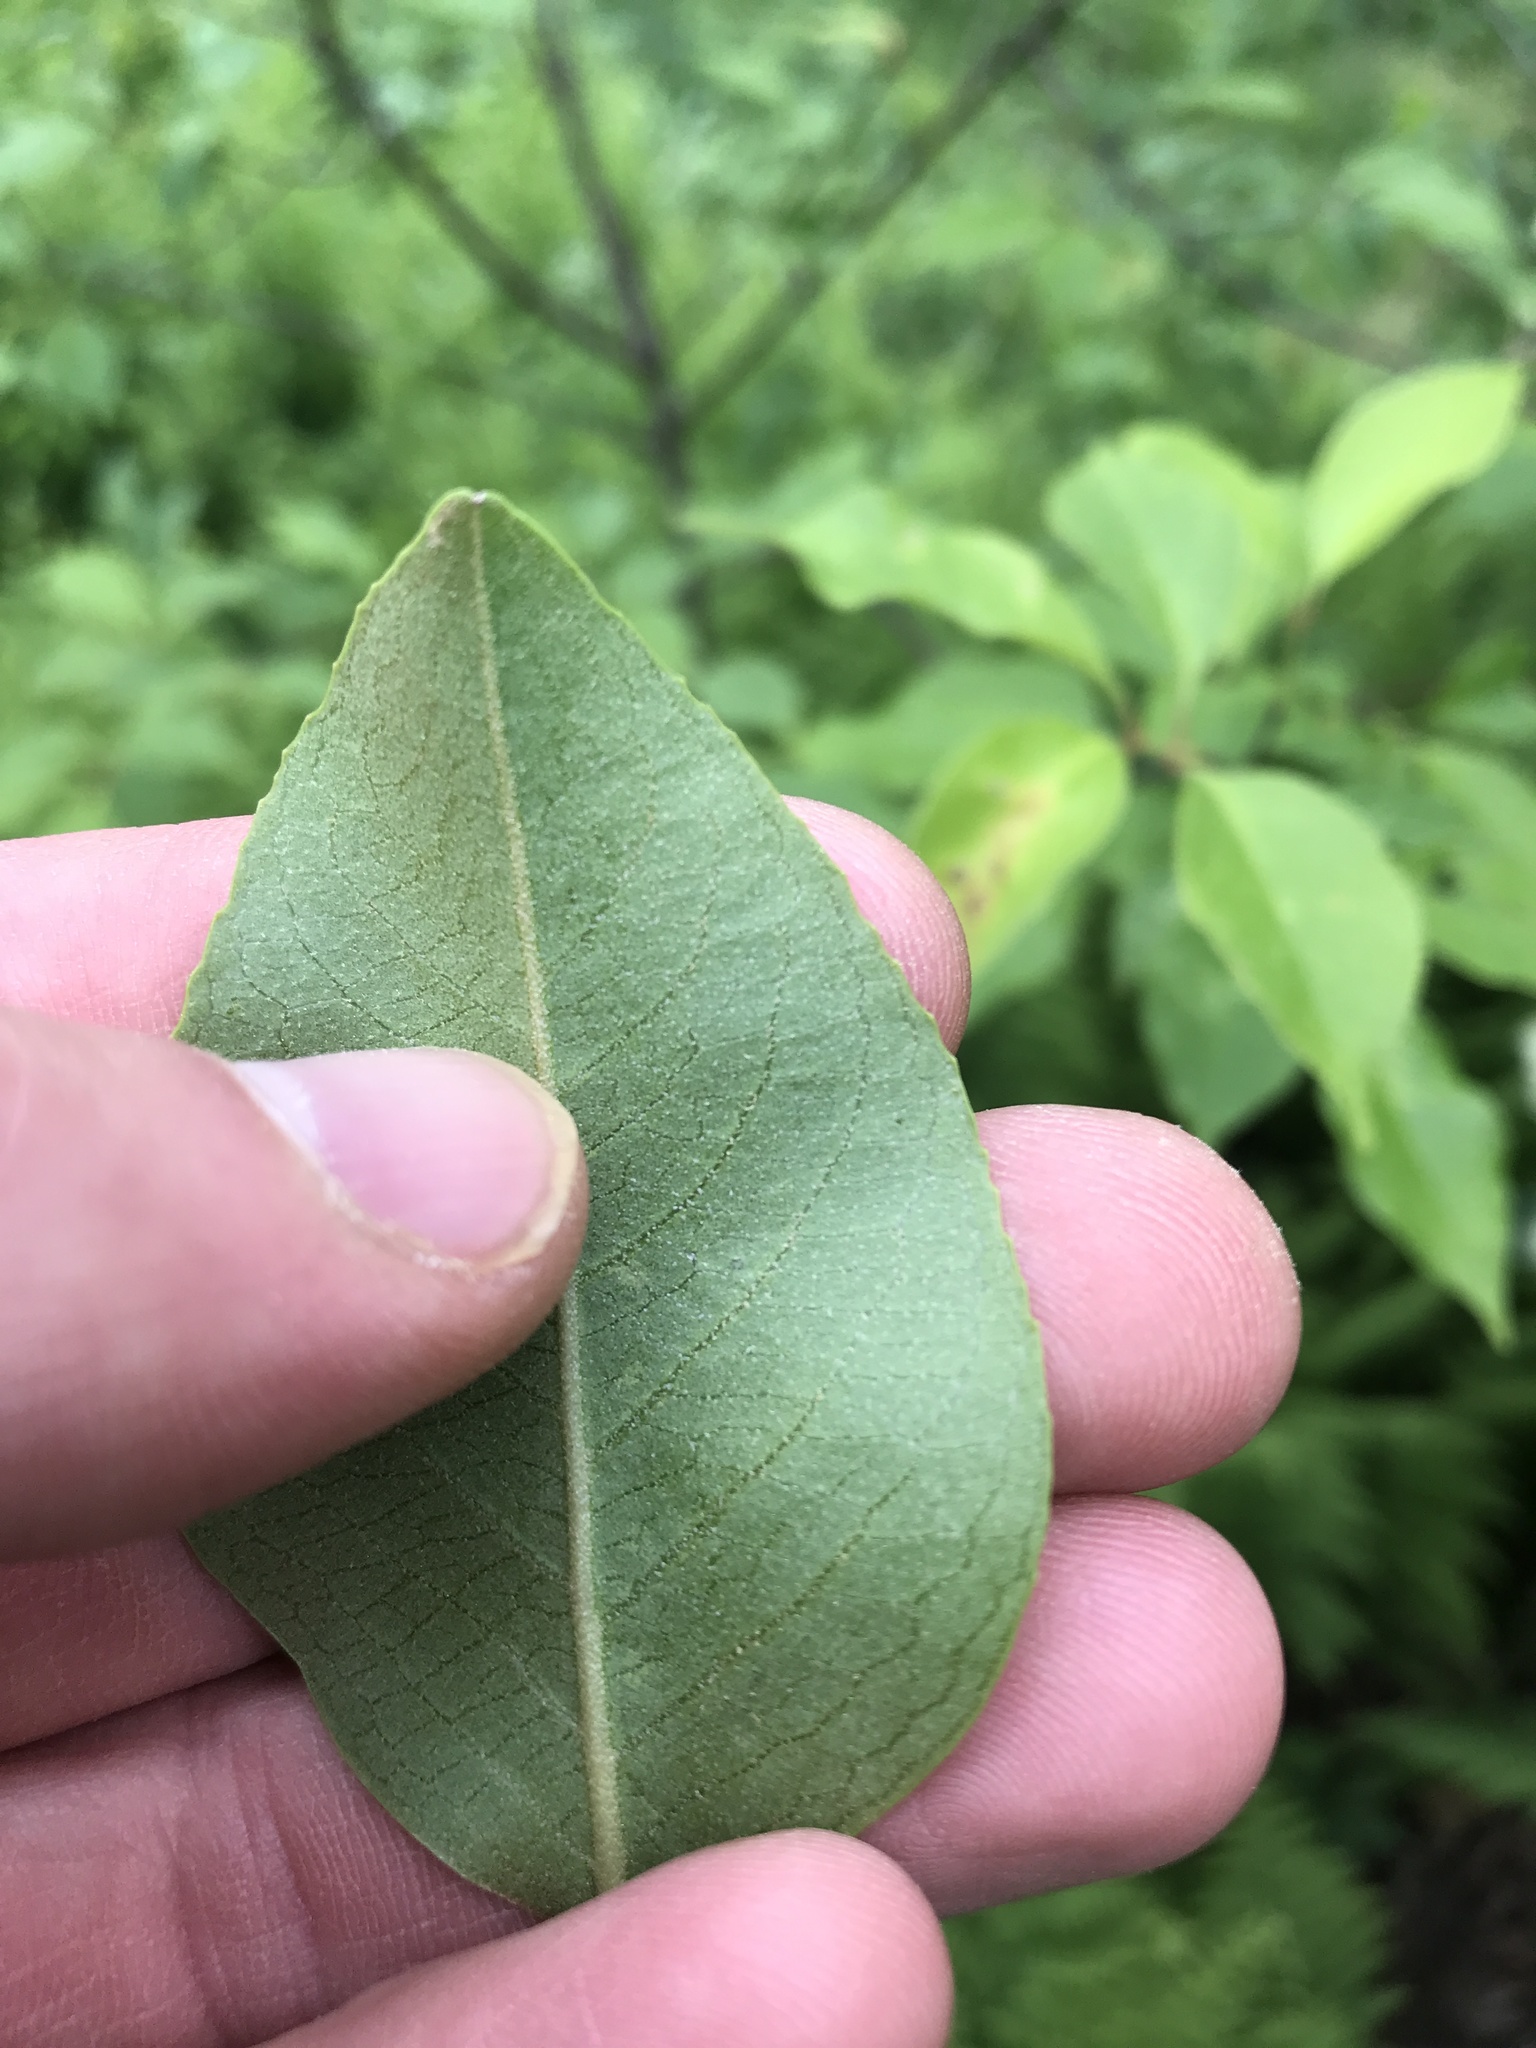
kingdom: Plantae
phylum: Tracheophyta
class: Magnoliopsida
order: Dipsacales
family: Viburnaceae
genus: Viburnum
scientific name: Viburnum cassinoides
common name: Swamp haw
